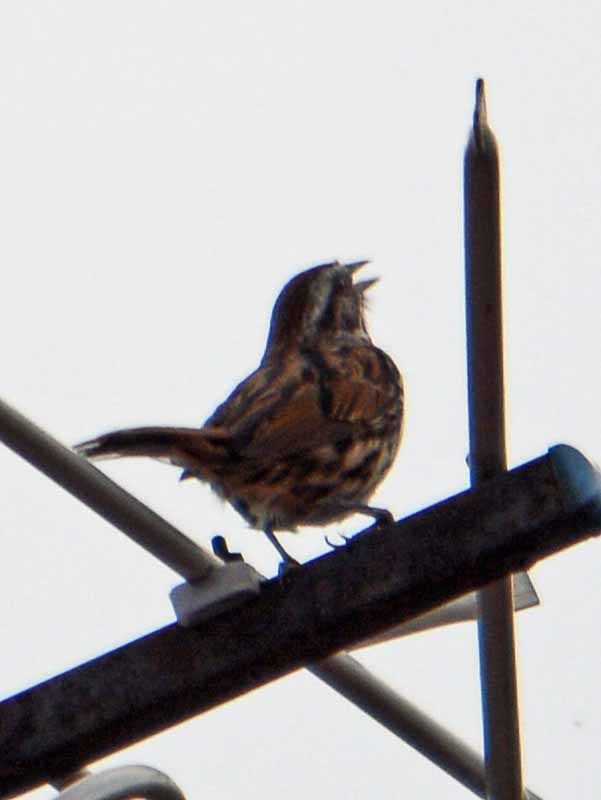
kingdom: Animalia
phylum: Chordata
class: Aves
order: Passeriformes
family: Passerellidae
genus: Melospiza
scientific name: Melospiza melodia
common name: Song sparrow
